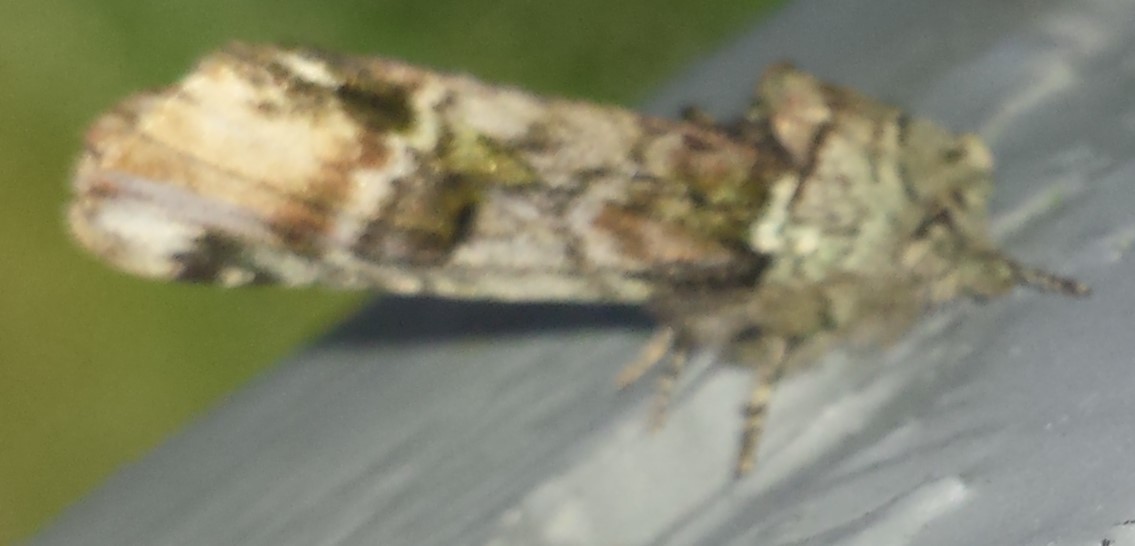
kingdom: Animalia
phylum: Arthropoda
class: Insecta
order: Lepidoptera
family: Notodontidae
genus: Schizura
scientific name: Schizura
